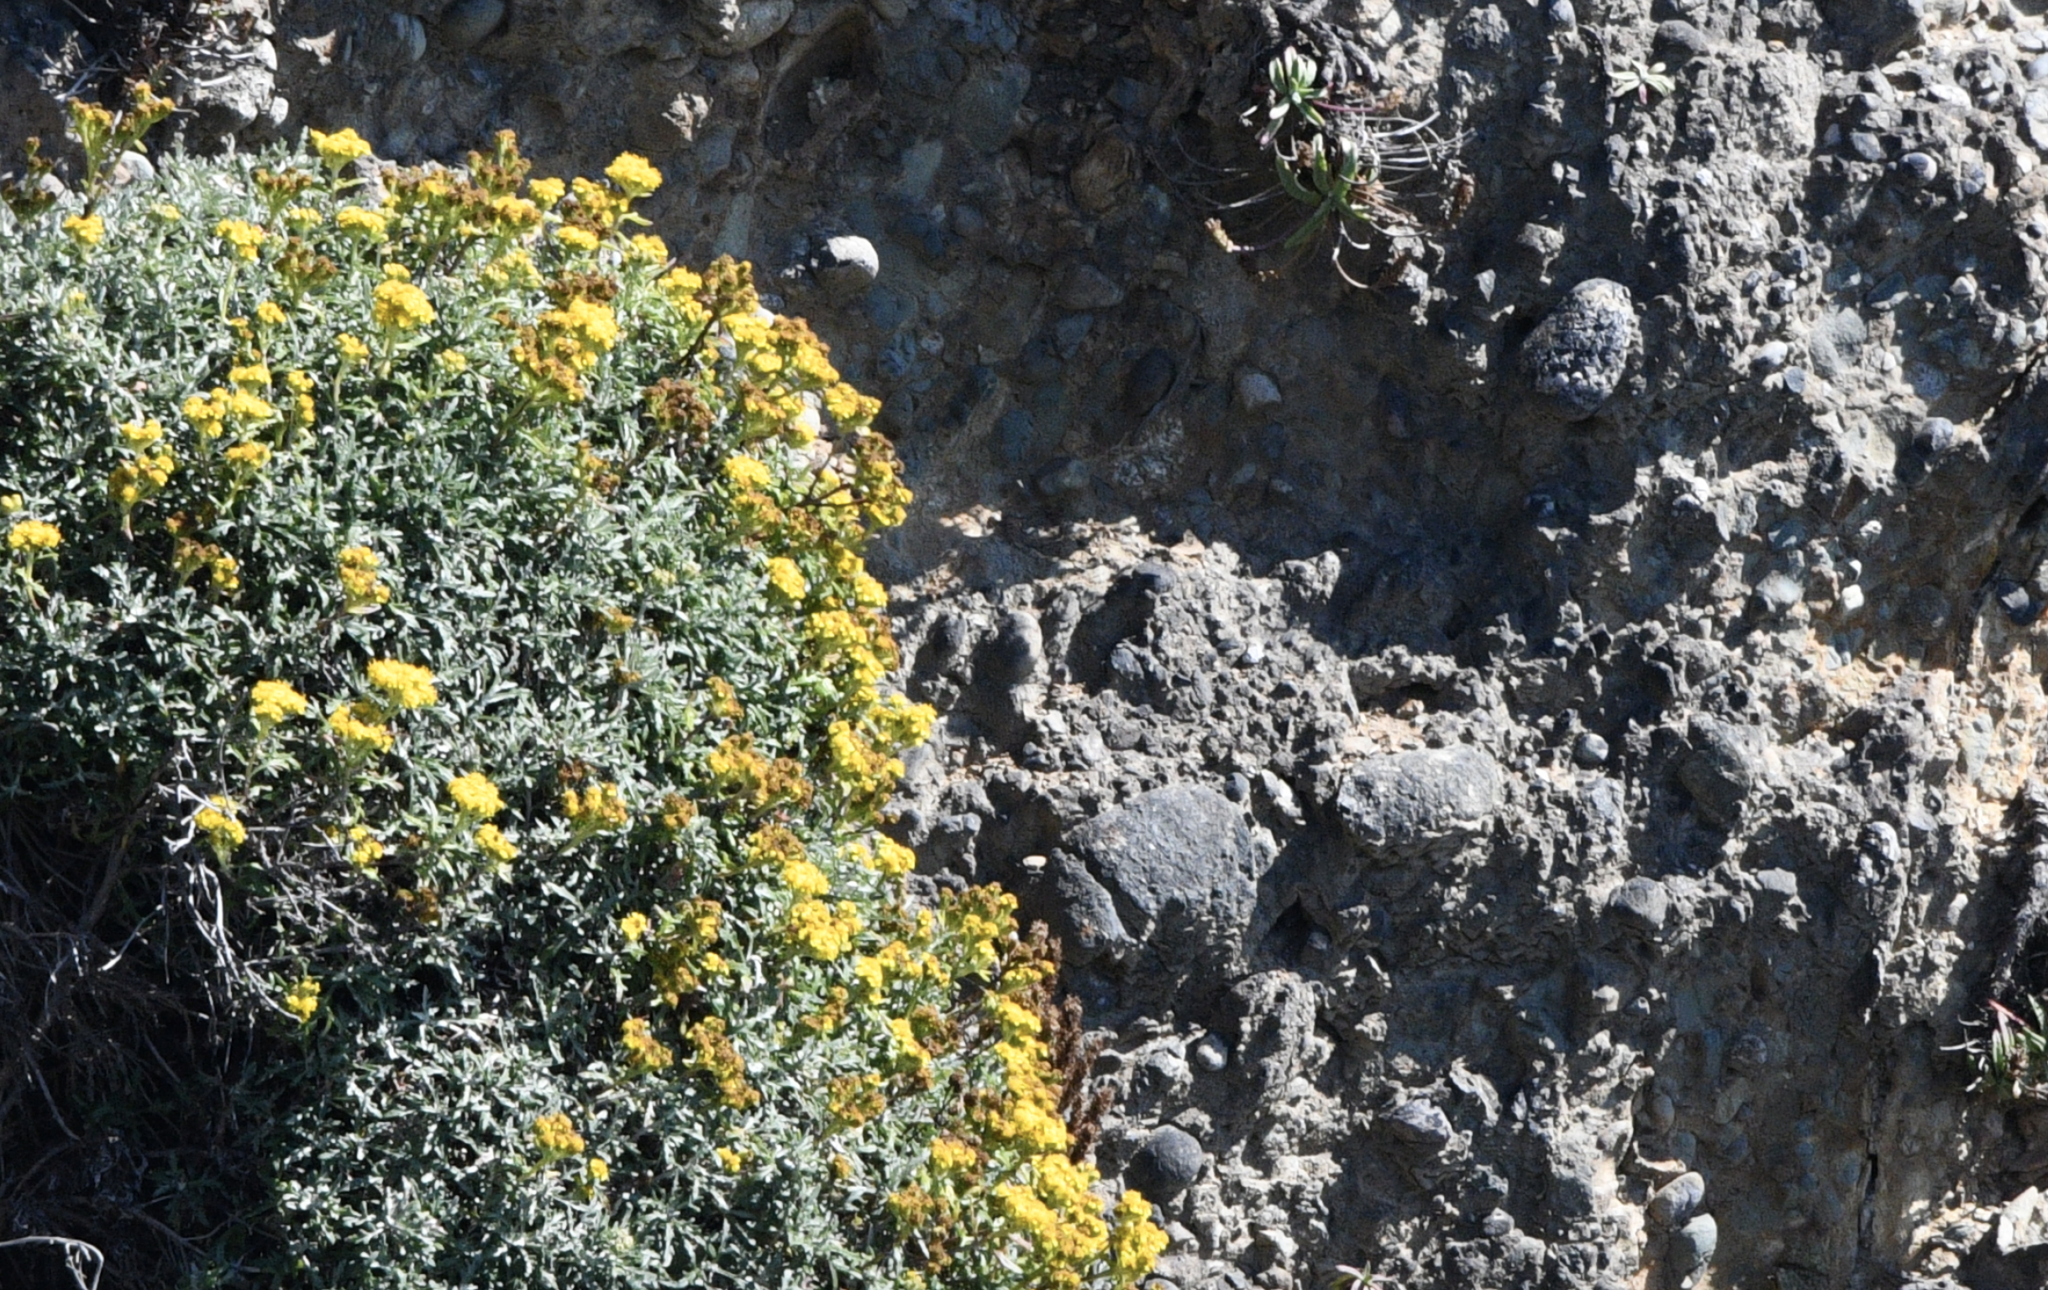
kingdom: Plantae
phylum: Tracheophyta
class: Magnoliopsida
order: Asterales
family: Asteraceae
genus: Eriophyllum
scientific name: Eriophyllum staechadifolium
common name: Lizardtail
